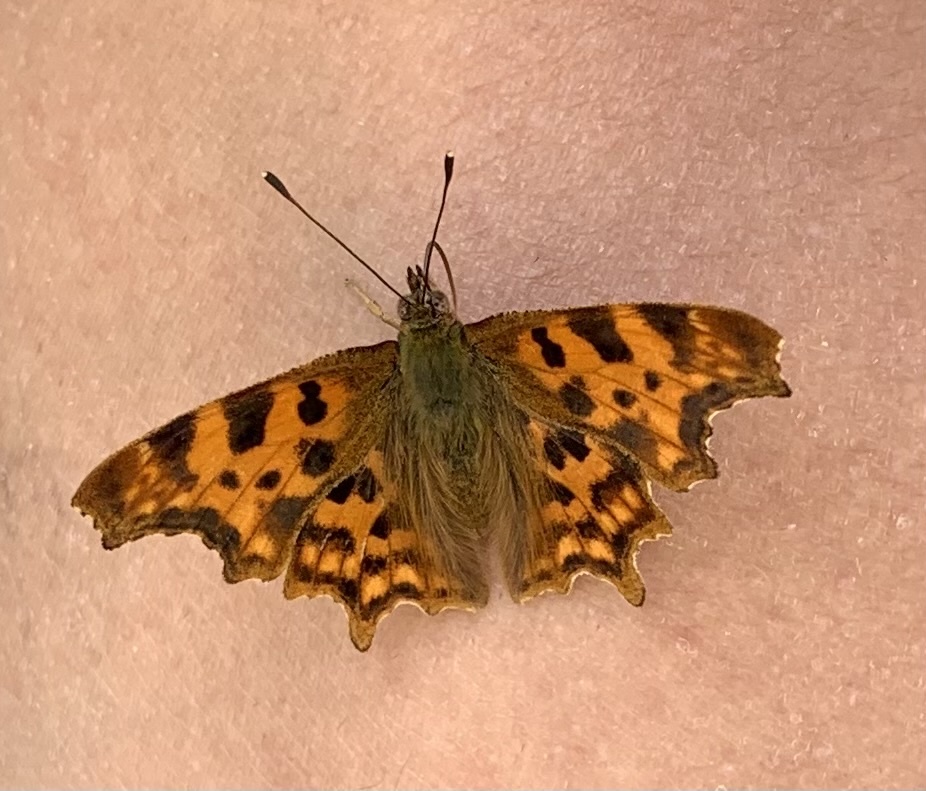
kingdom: Animalia
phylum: Arthropoda
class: Insecta
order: Lepidoptera
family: Nymphalidae
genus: Polygonia
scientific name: Polygonia c-album
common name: Comma
